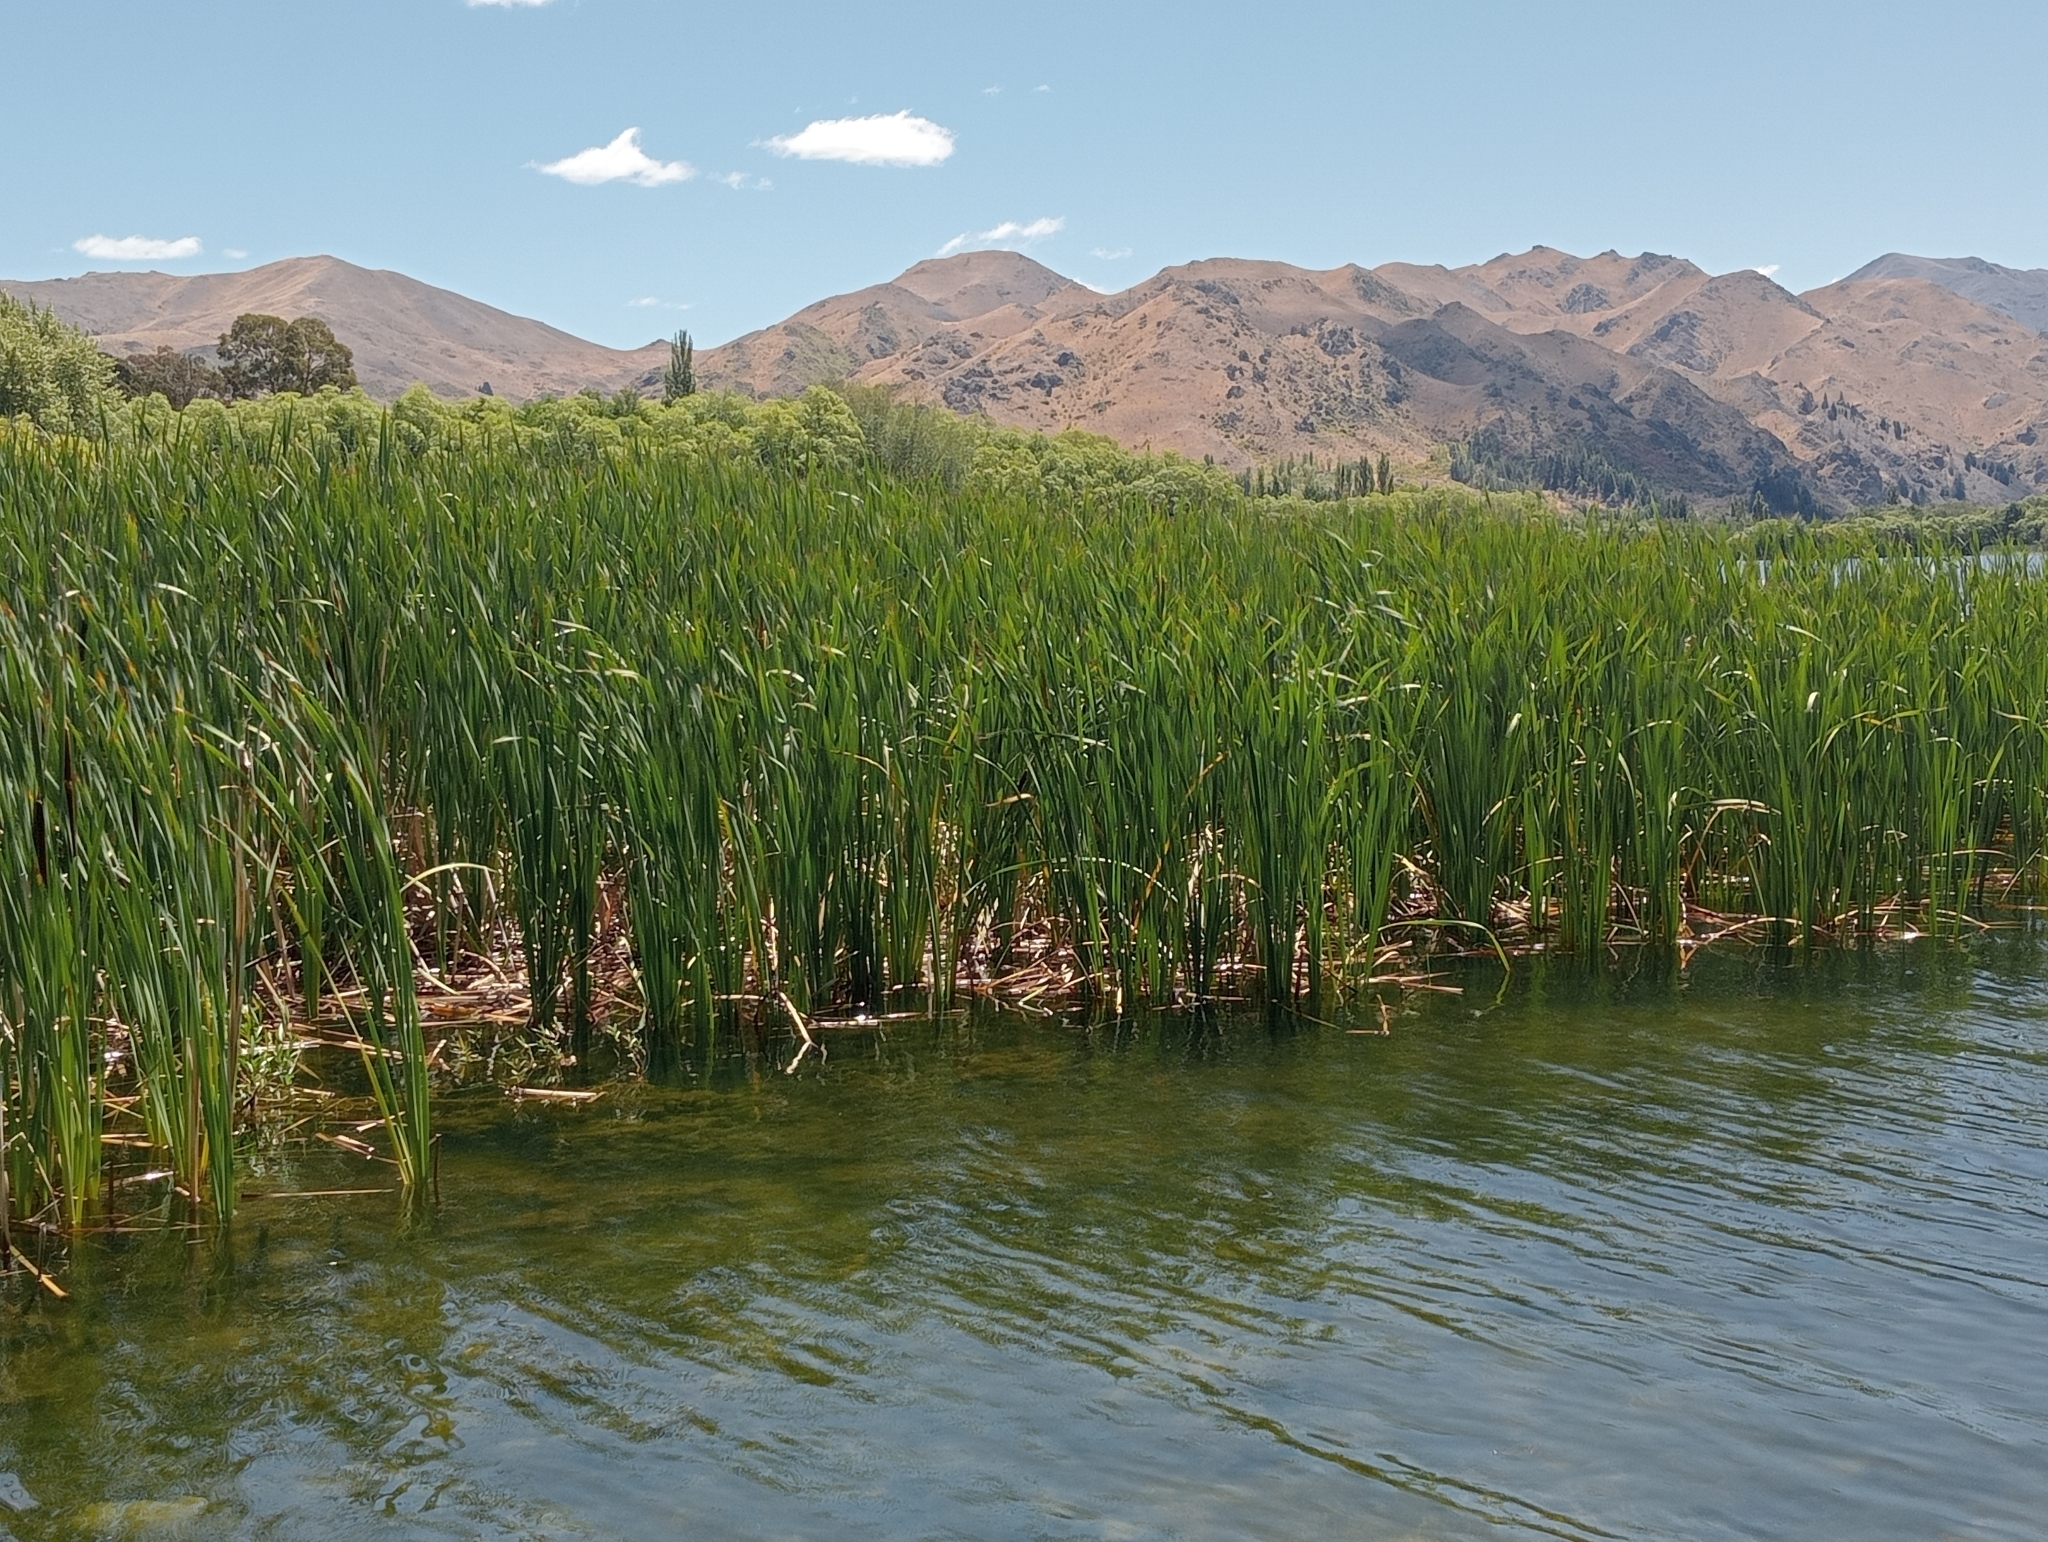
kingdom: Plantae
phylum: Tracheophyta
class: Liliopsida
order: Poales
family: Typhaceae
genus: Typha
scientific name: Typha orientalis
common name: Bullrush
